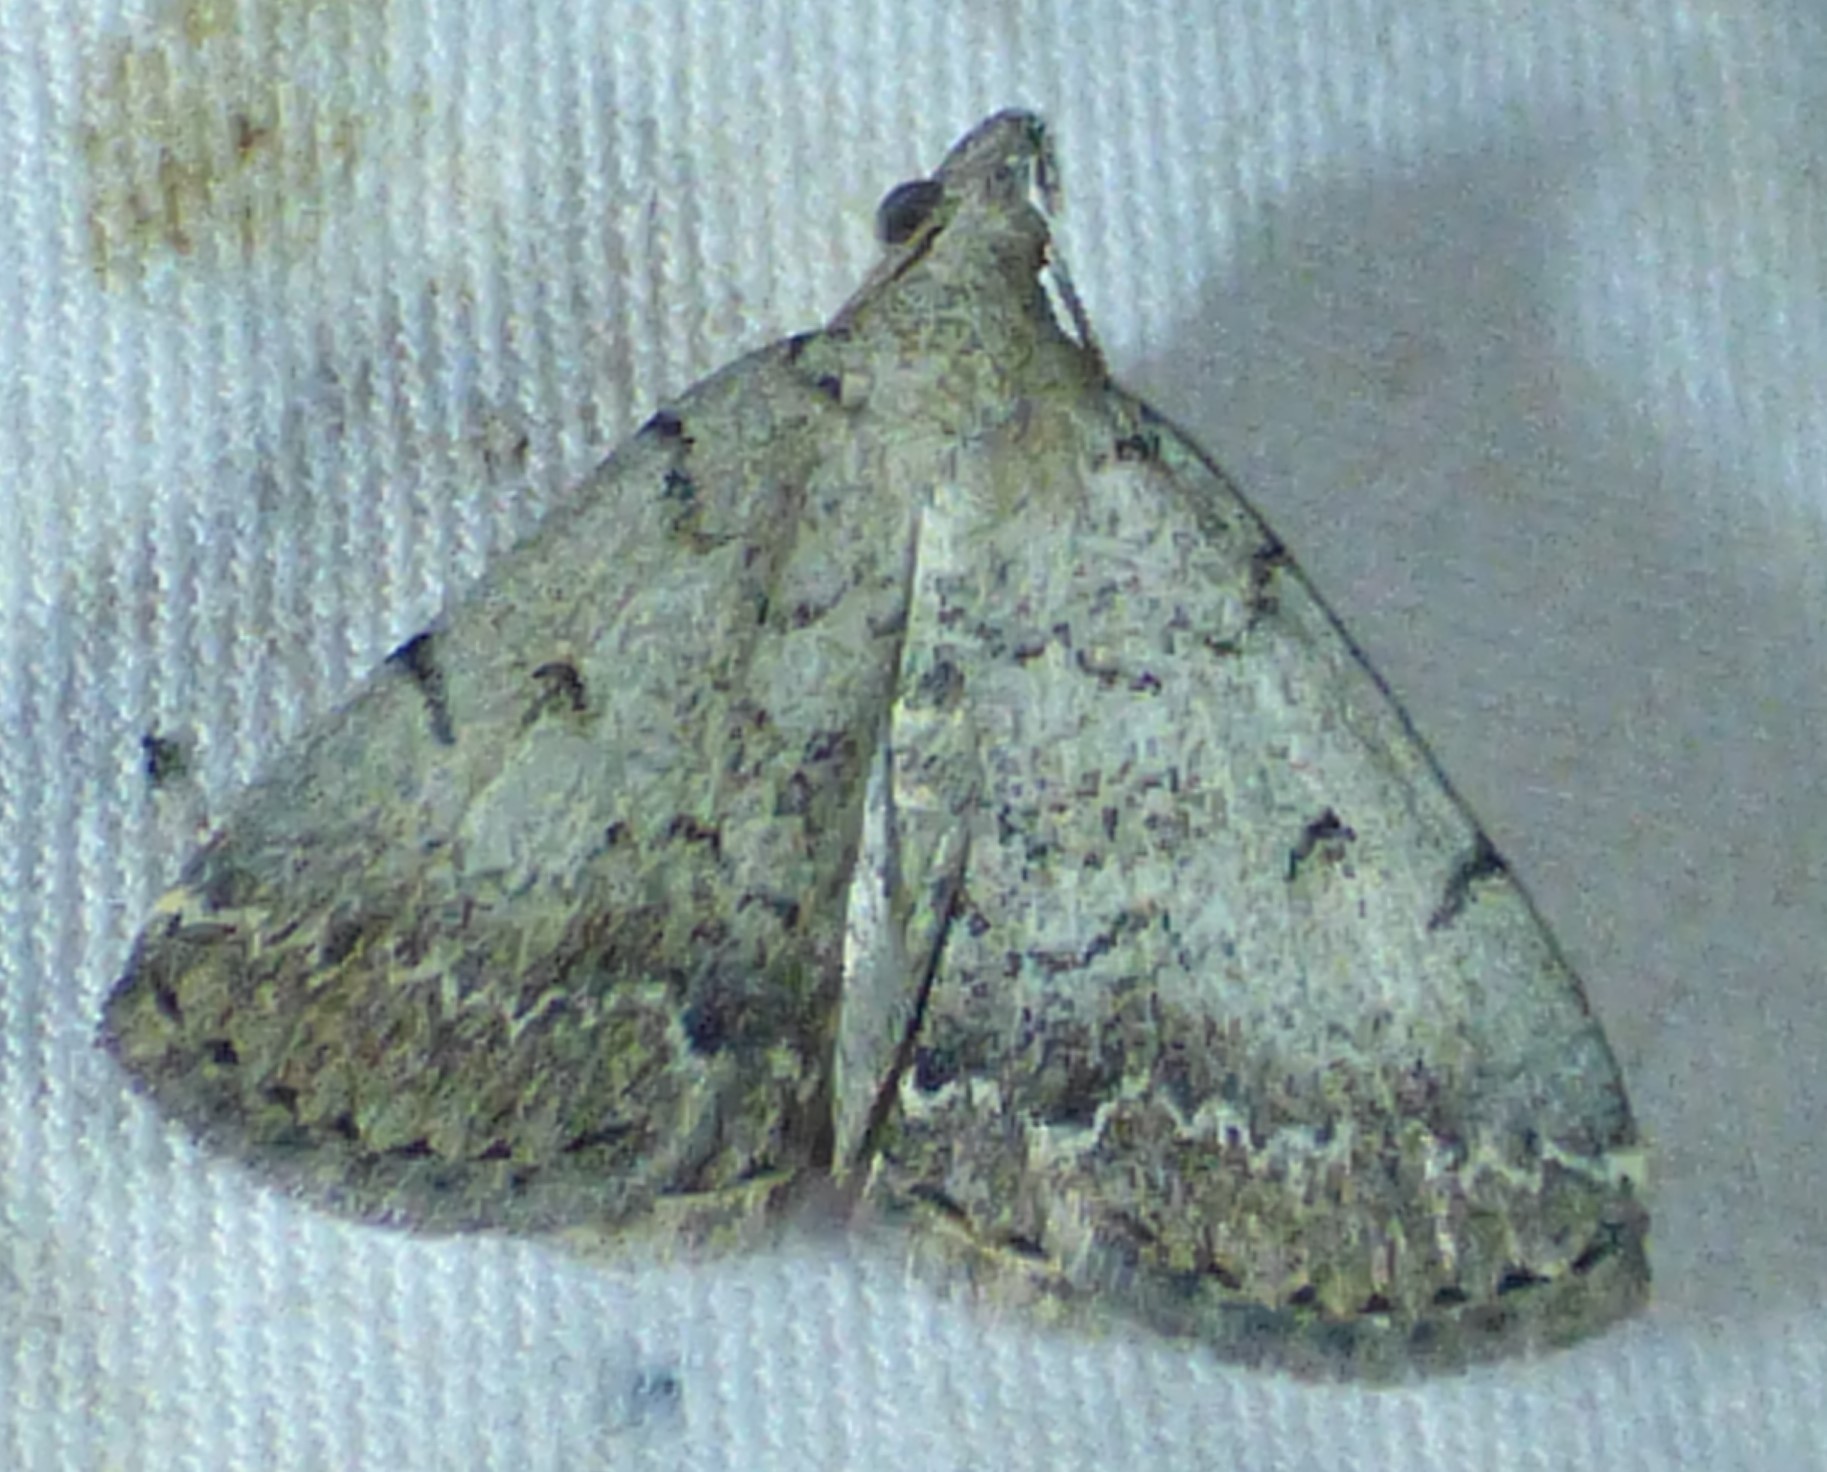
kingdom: Animalia
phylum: Arthropoda
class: Insecta
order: Lepidoptera
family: Erebidae
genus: Zanclognatha
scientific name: Zanclognatha theralis
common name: Flagged fan-foot
